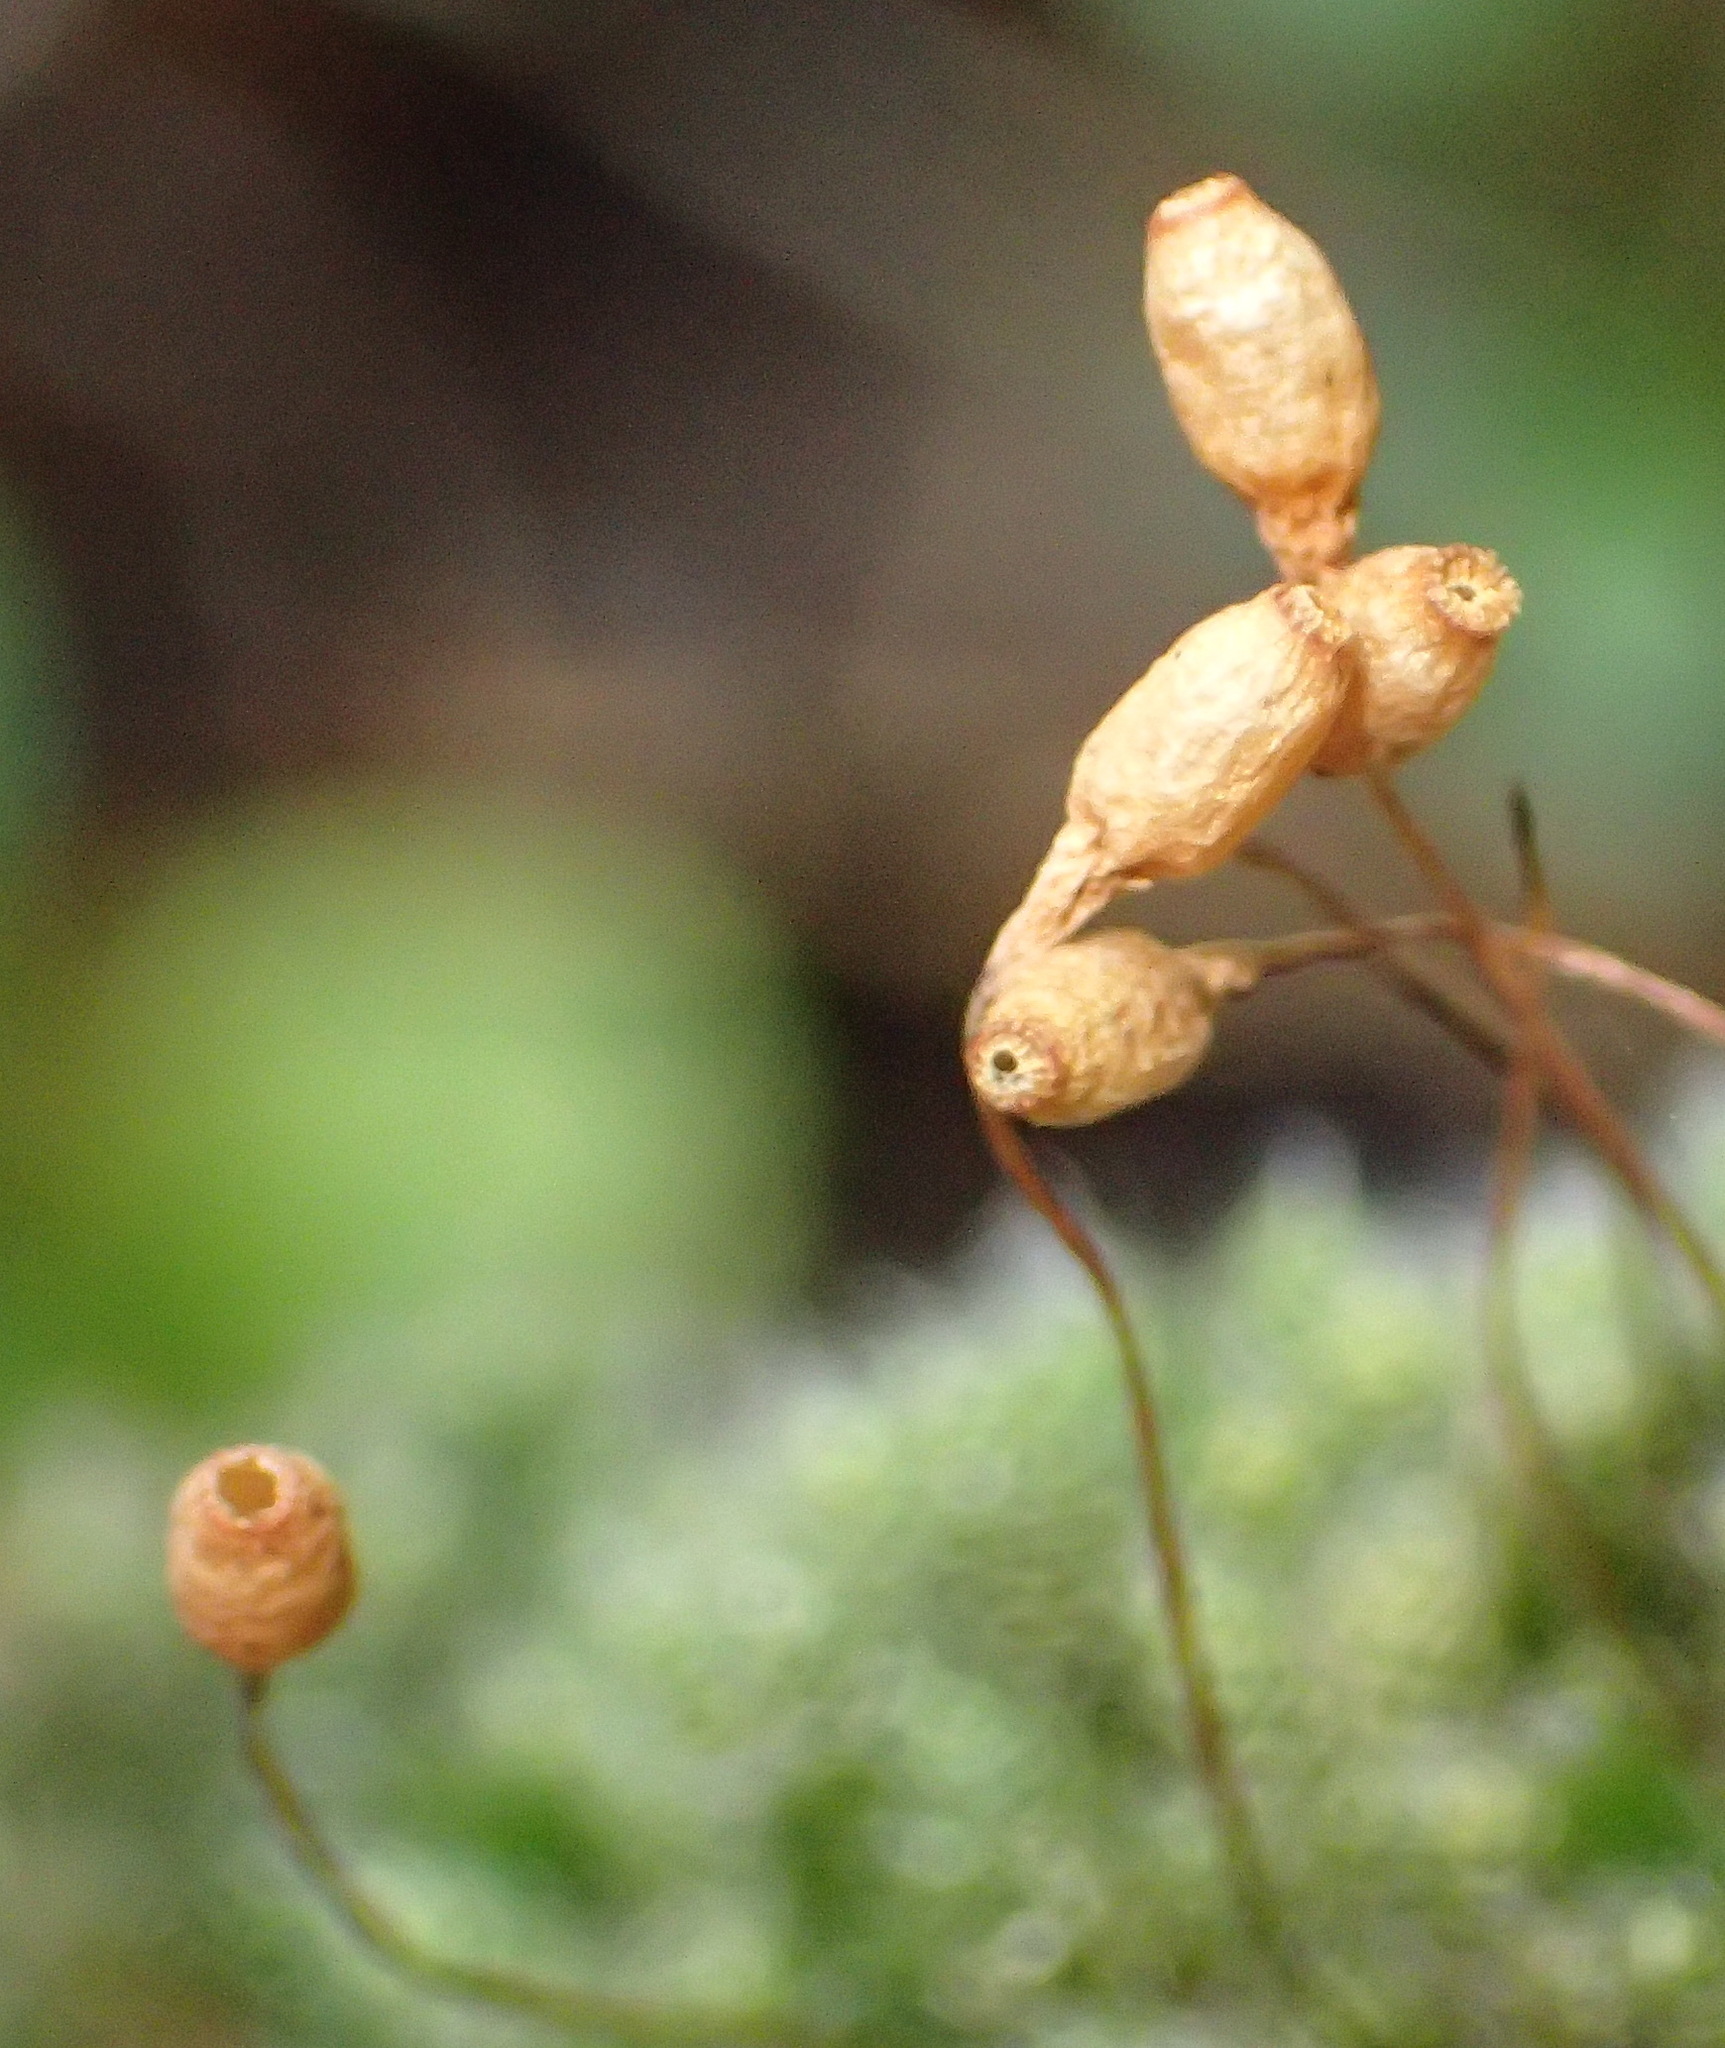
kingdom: Plantae
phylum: Bryophyta
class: Bryopsida
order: Bryales
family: Bryaceae
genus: Leptostomopsis
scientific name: Leptostomopsis pulchra
